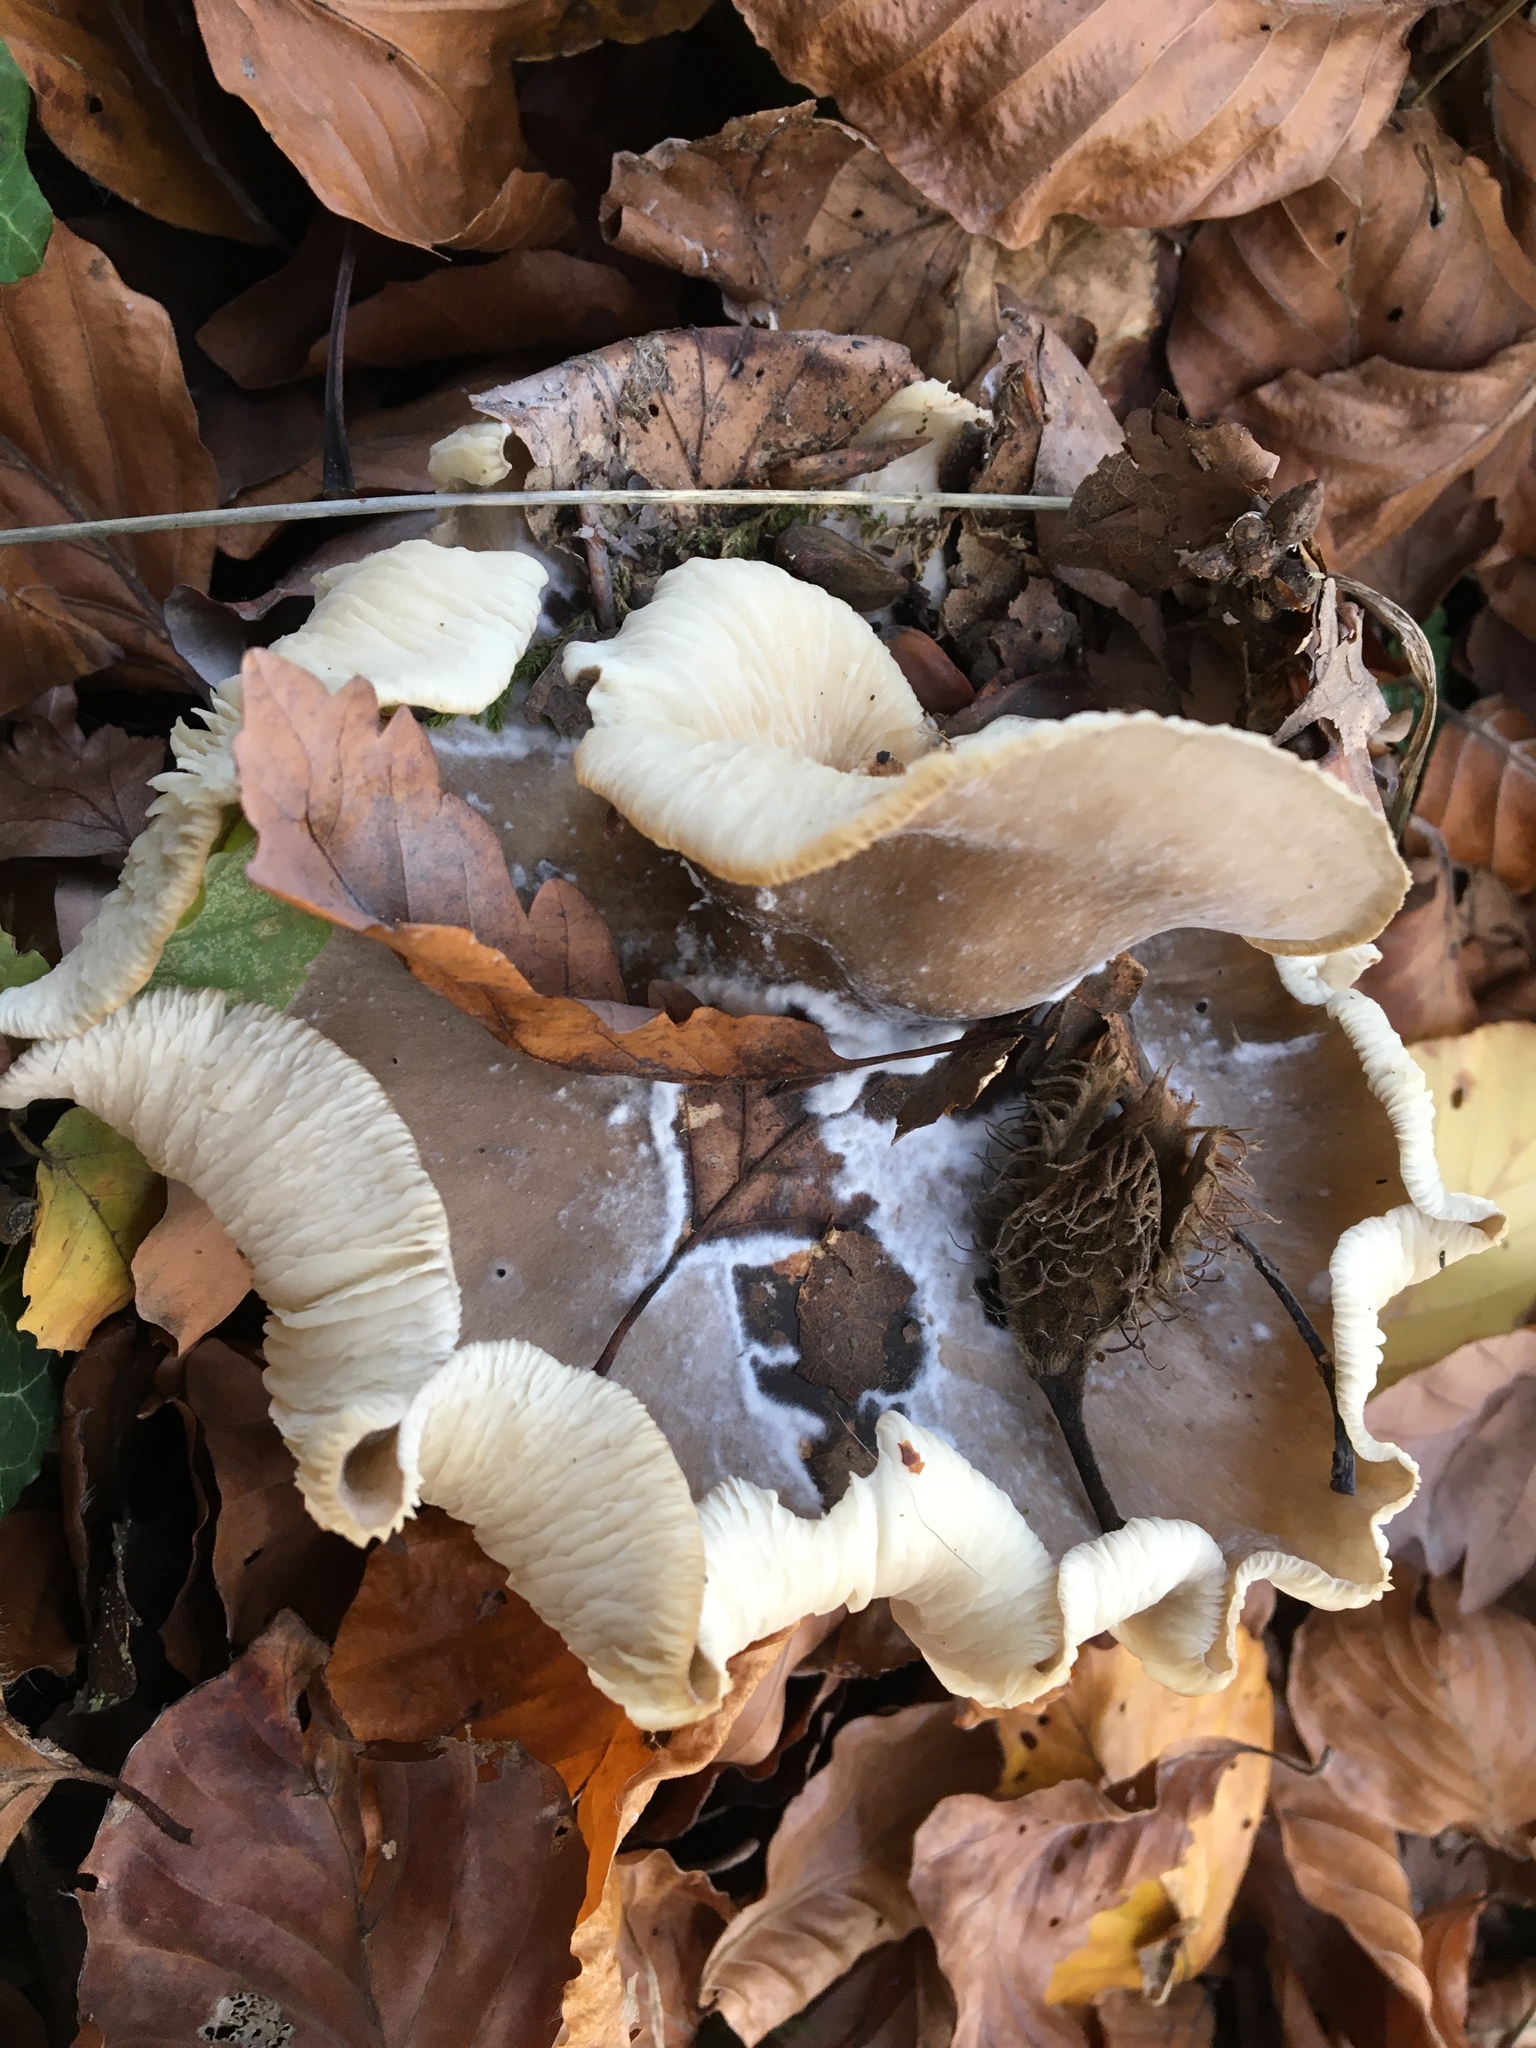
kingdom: Fungi
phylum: Basidiomycota
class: Agaricomycetes
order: Agaricales
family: Tricholomataceae
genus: Clitocybe
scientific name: Clitocybe nebularis
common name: Clouded agaric
